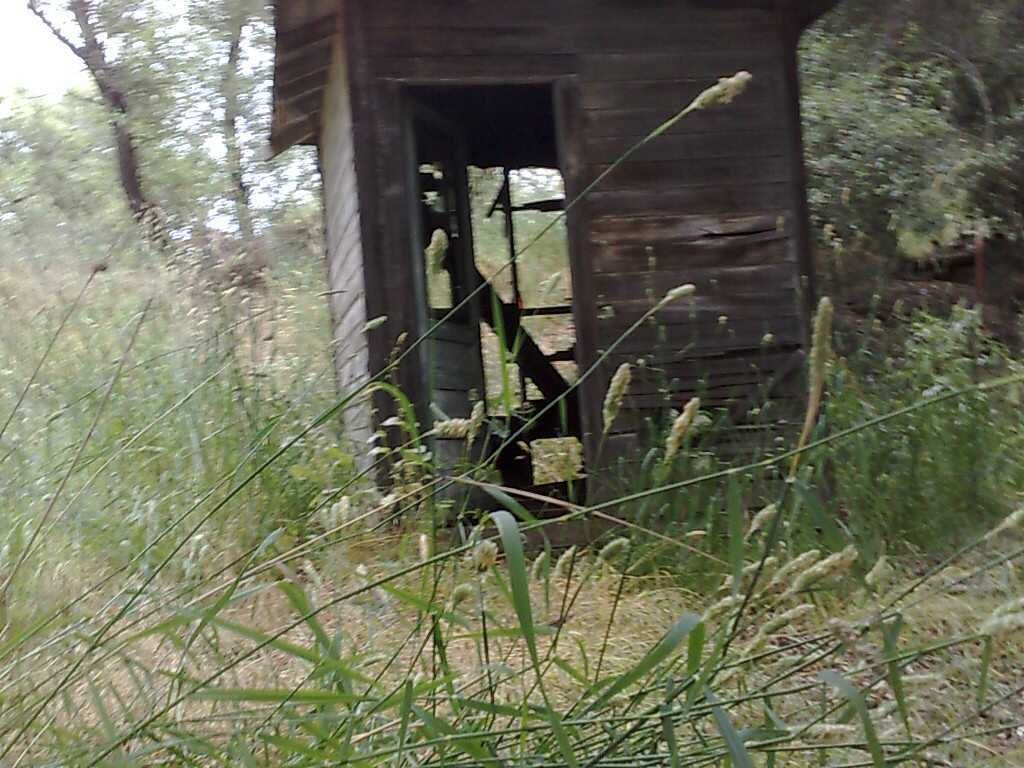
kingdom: Plantae
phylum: Tracheophyta
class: Liliopsida
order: Poales
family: Poaceae
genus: Phalaris
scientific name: Phalaris aquatica
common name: Bulbous canary-grass
